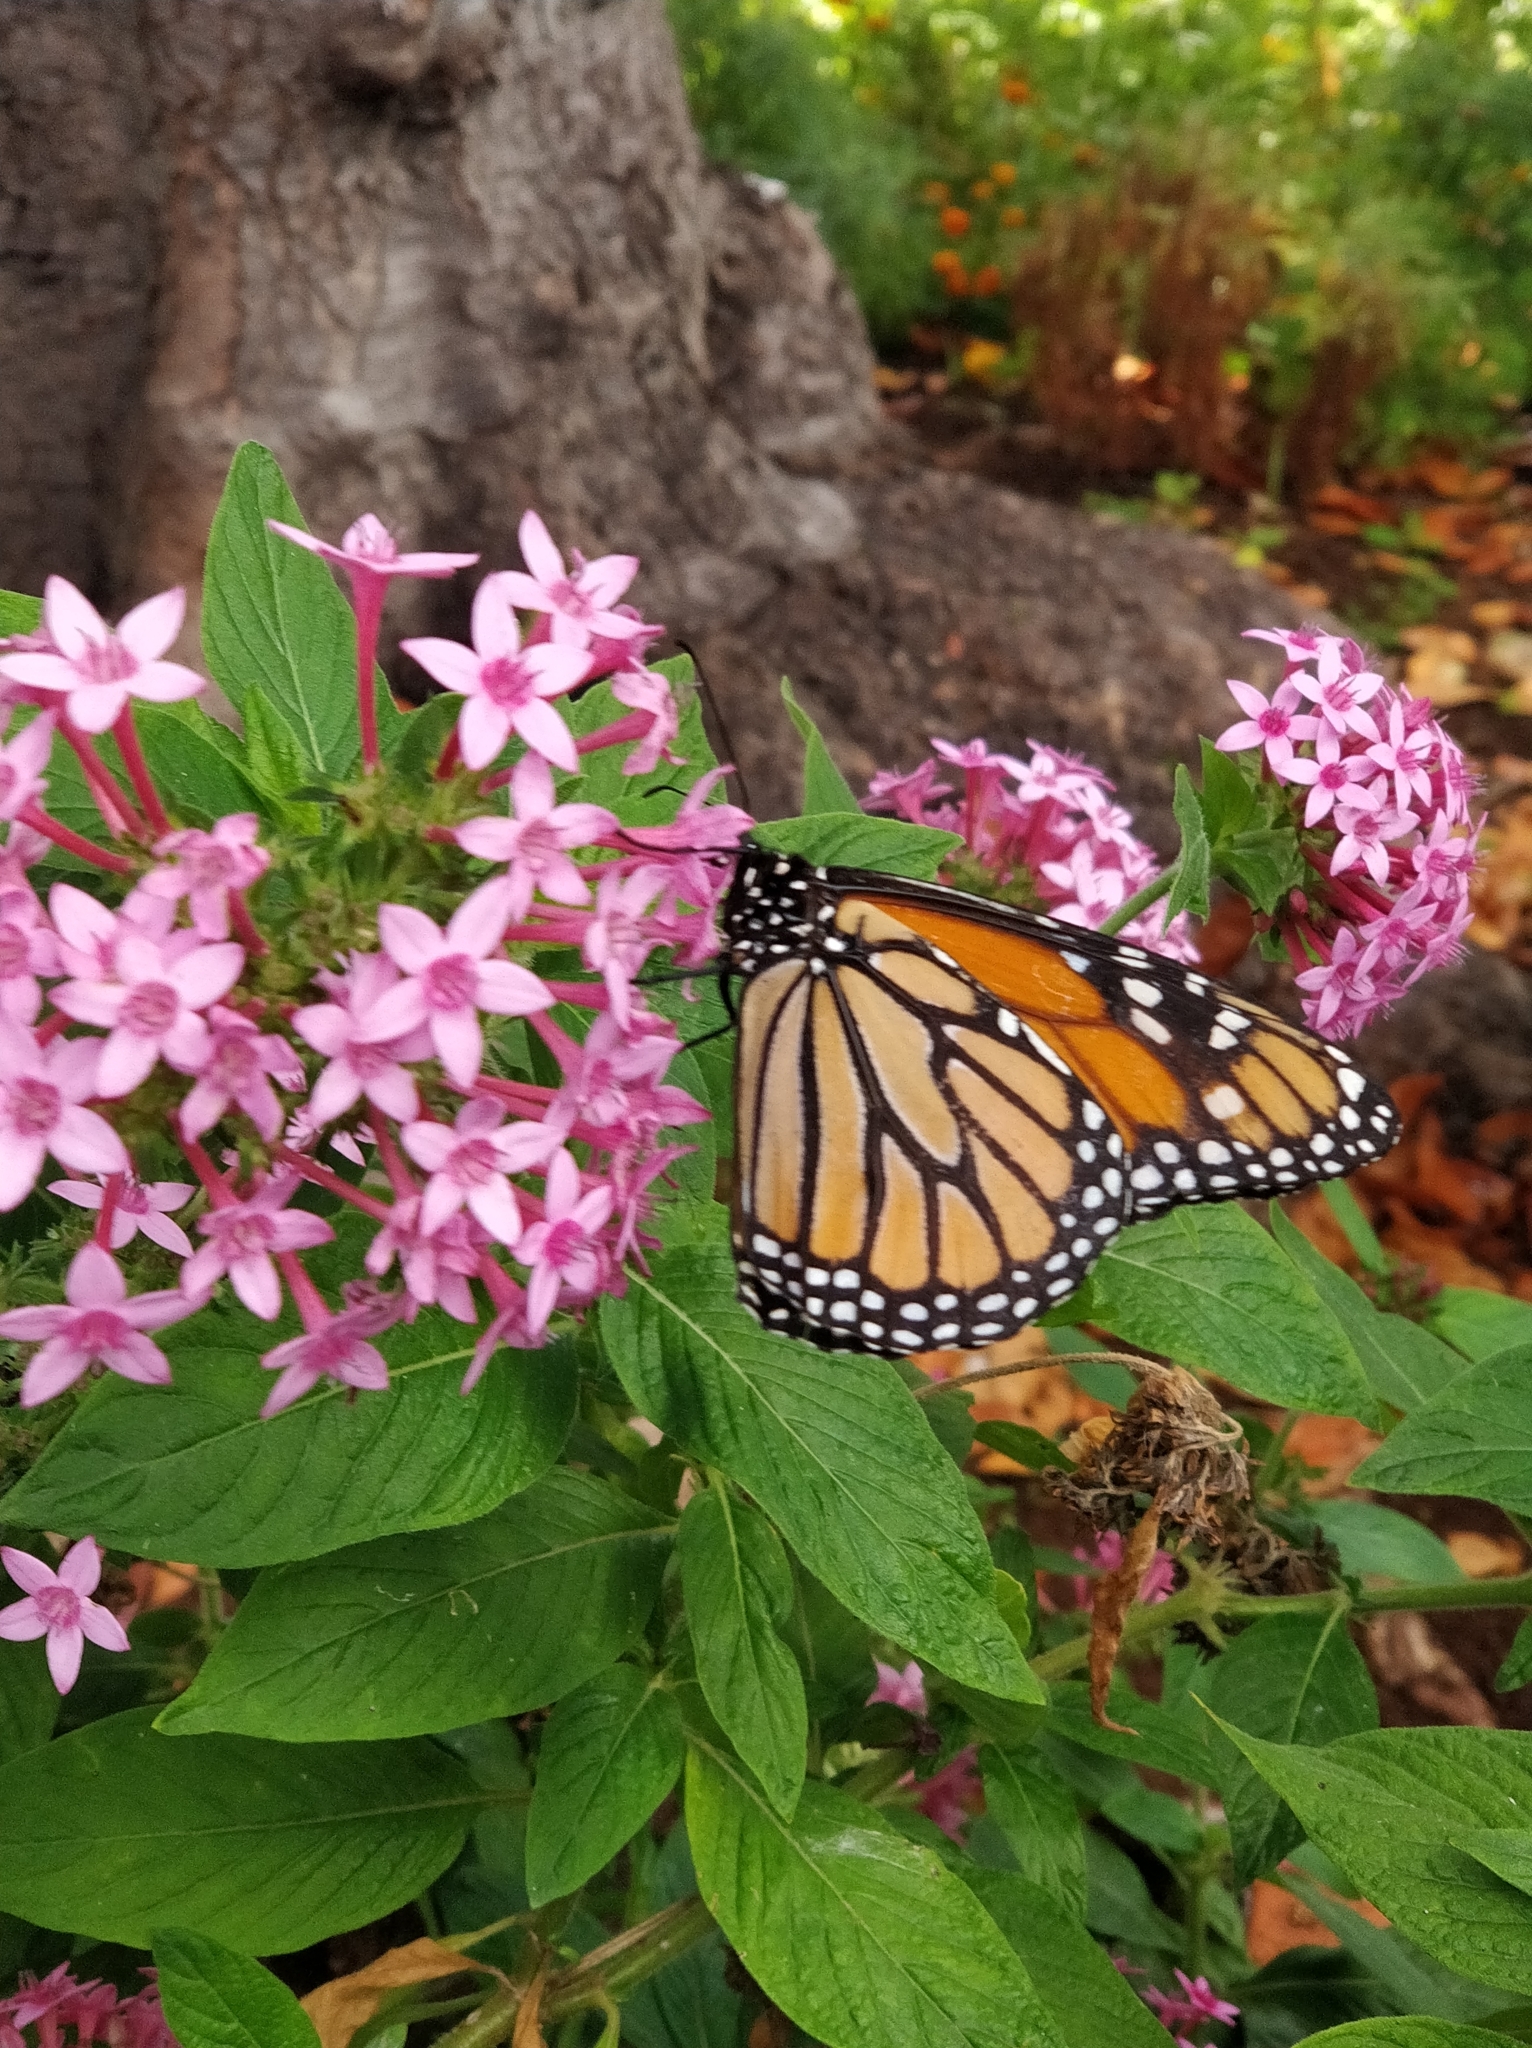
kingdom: Animalia
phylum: Arthropoda
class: Insecta
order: Lepidoptera
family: Nymphalidae
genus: Danaus
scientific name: Danaus plexippus
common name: Monarch
